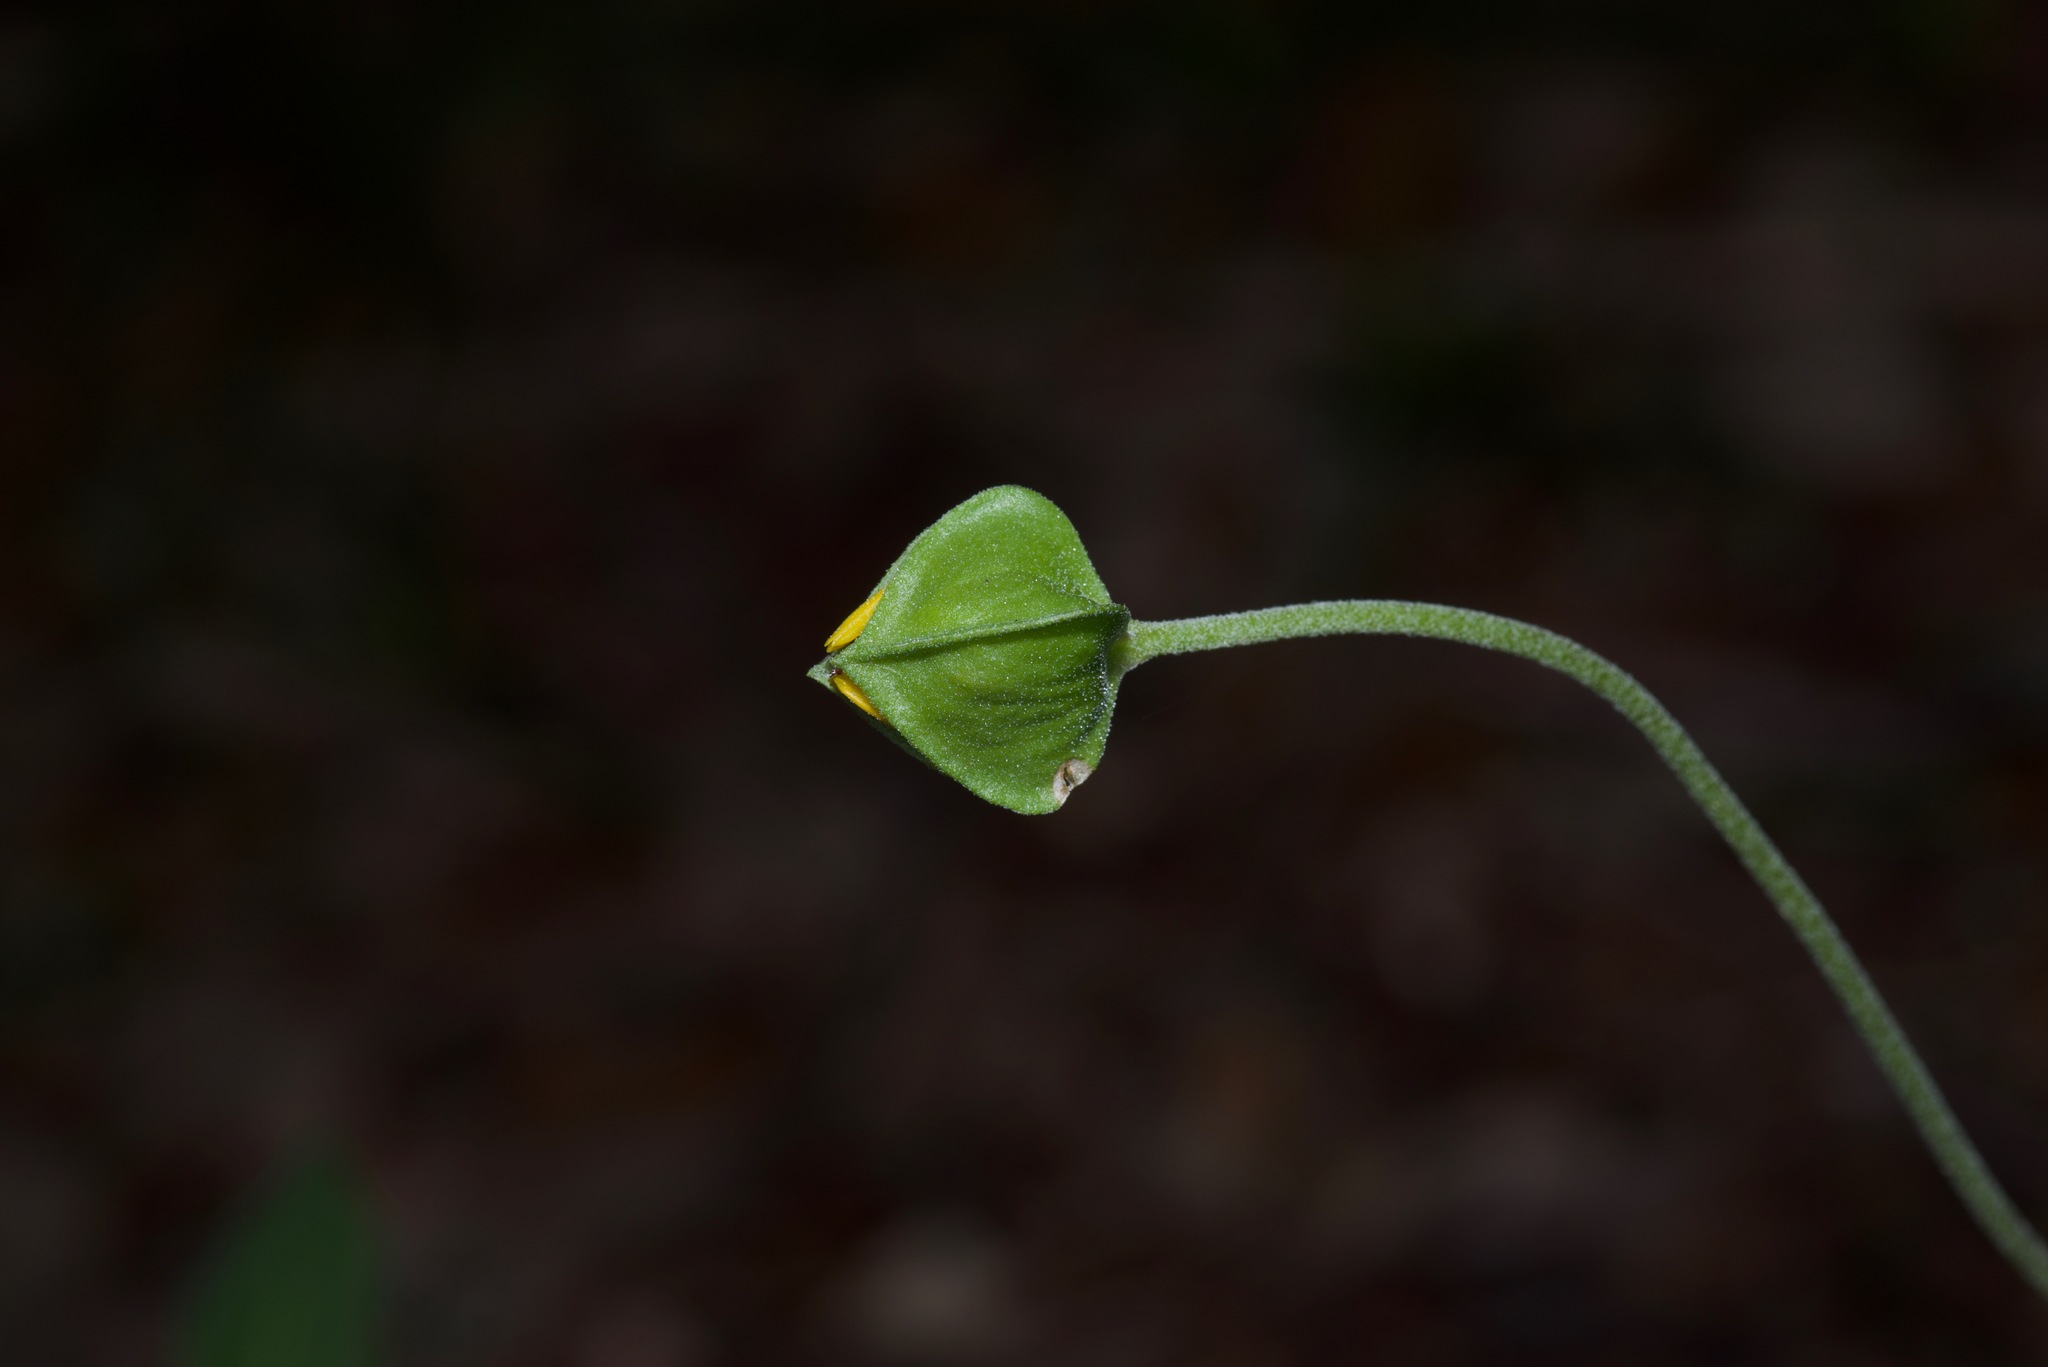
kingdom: Plantae
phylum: Tracheophyta
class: Magnoliopsida
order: Asterales
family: Asteraceae
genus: Tetragonotheca
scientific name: Tetragonotheca texana
